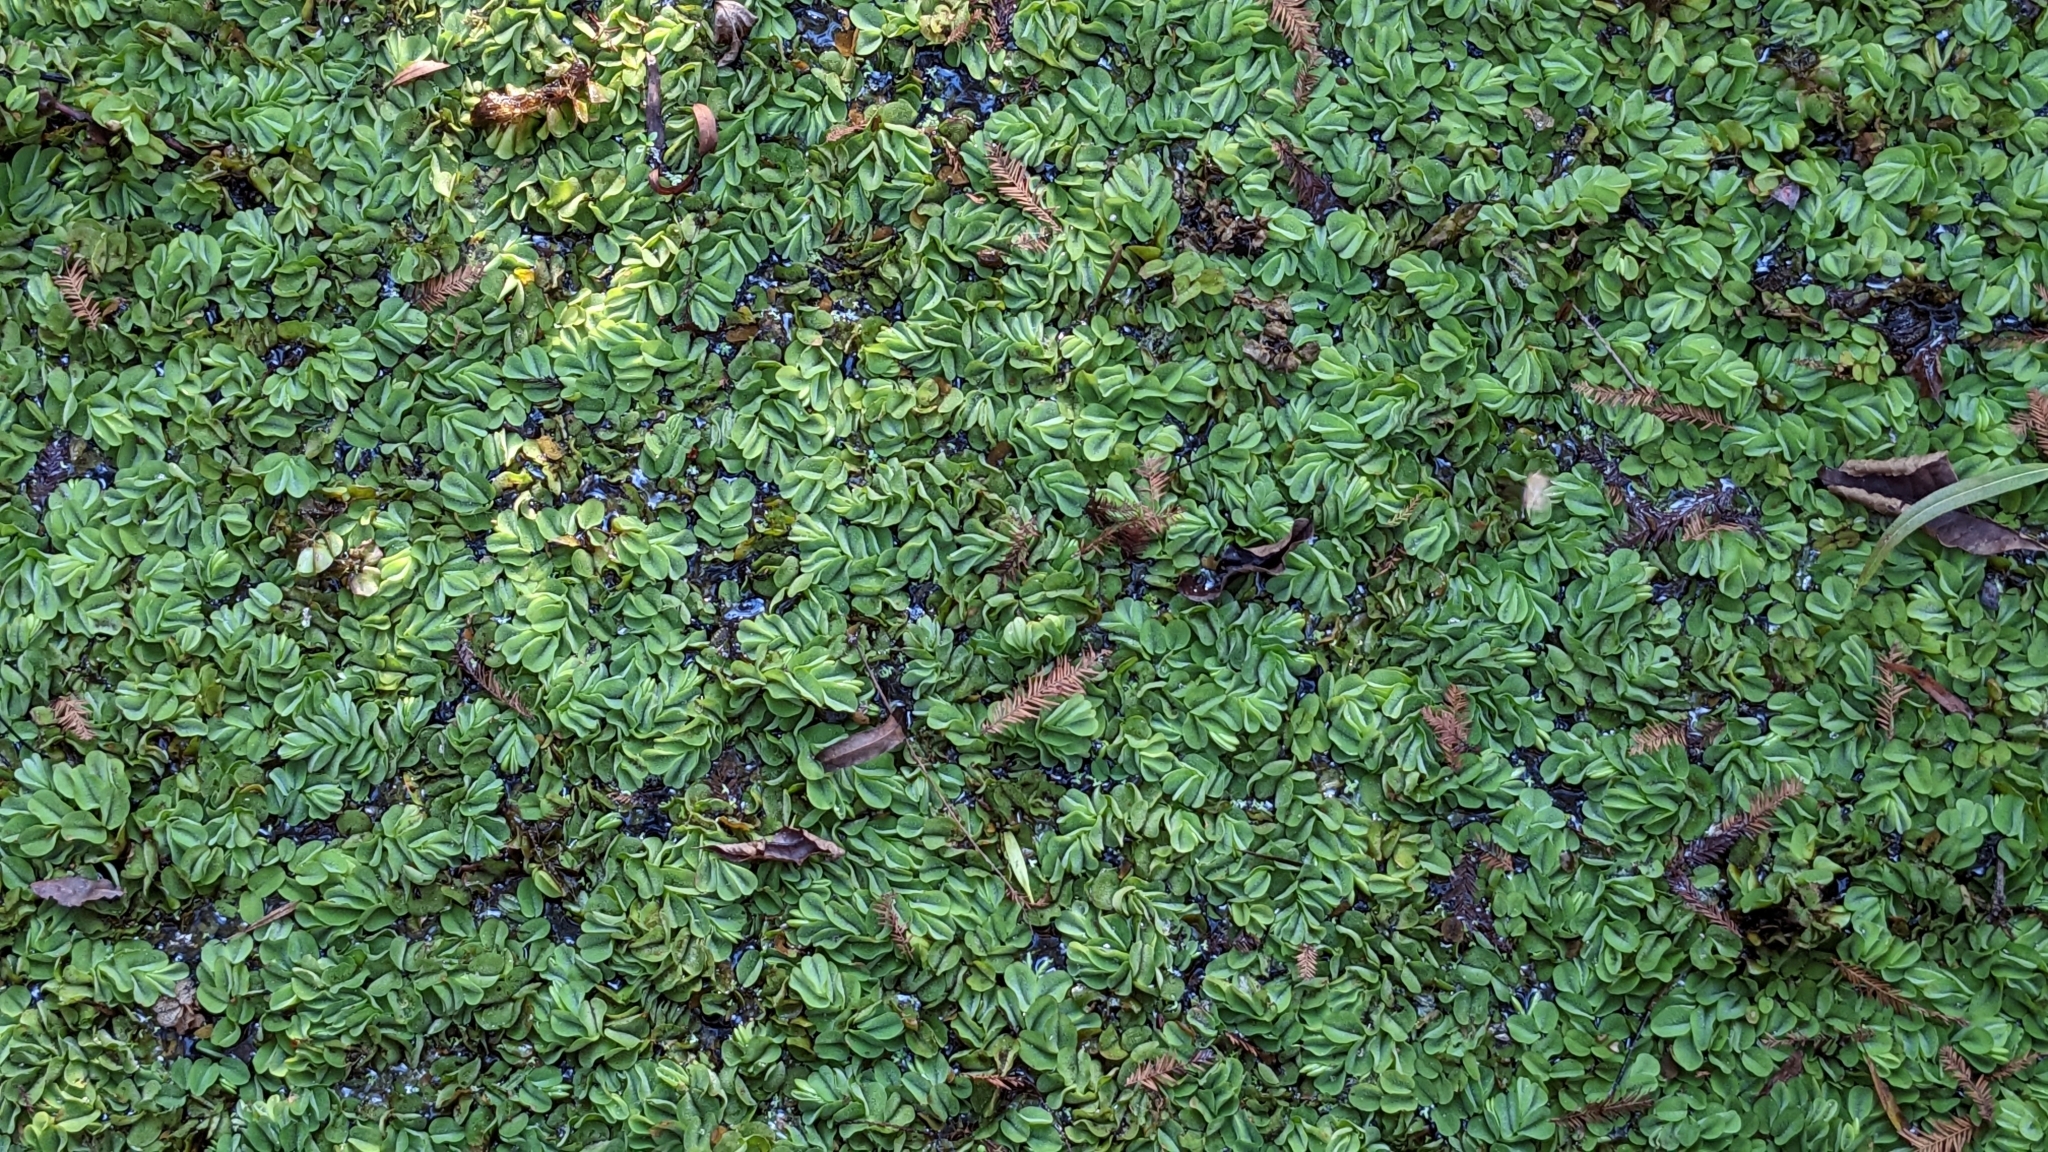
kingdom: Plantae
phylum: Tracheophyta
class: Polypodiopsida
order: Salviniales
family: Salviniaceae
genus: Salvinia
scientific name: Salvinia molesta
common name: Kariba weed
